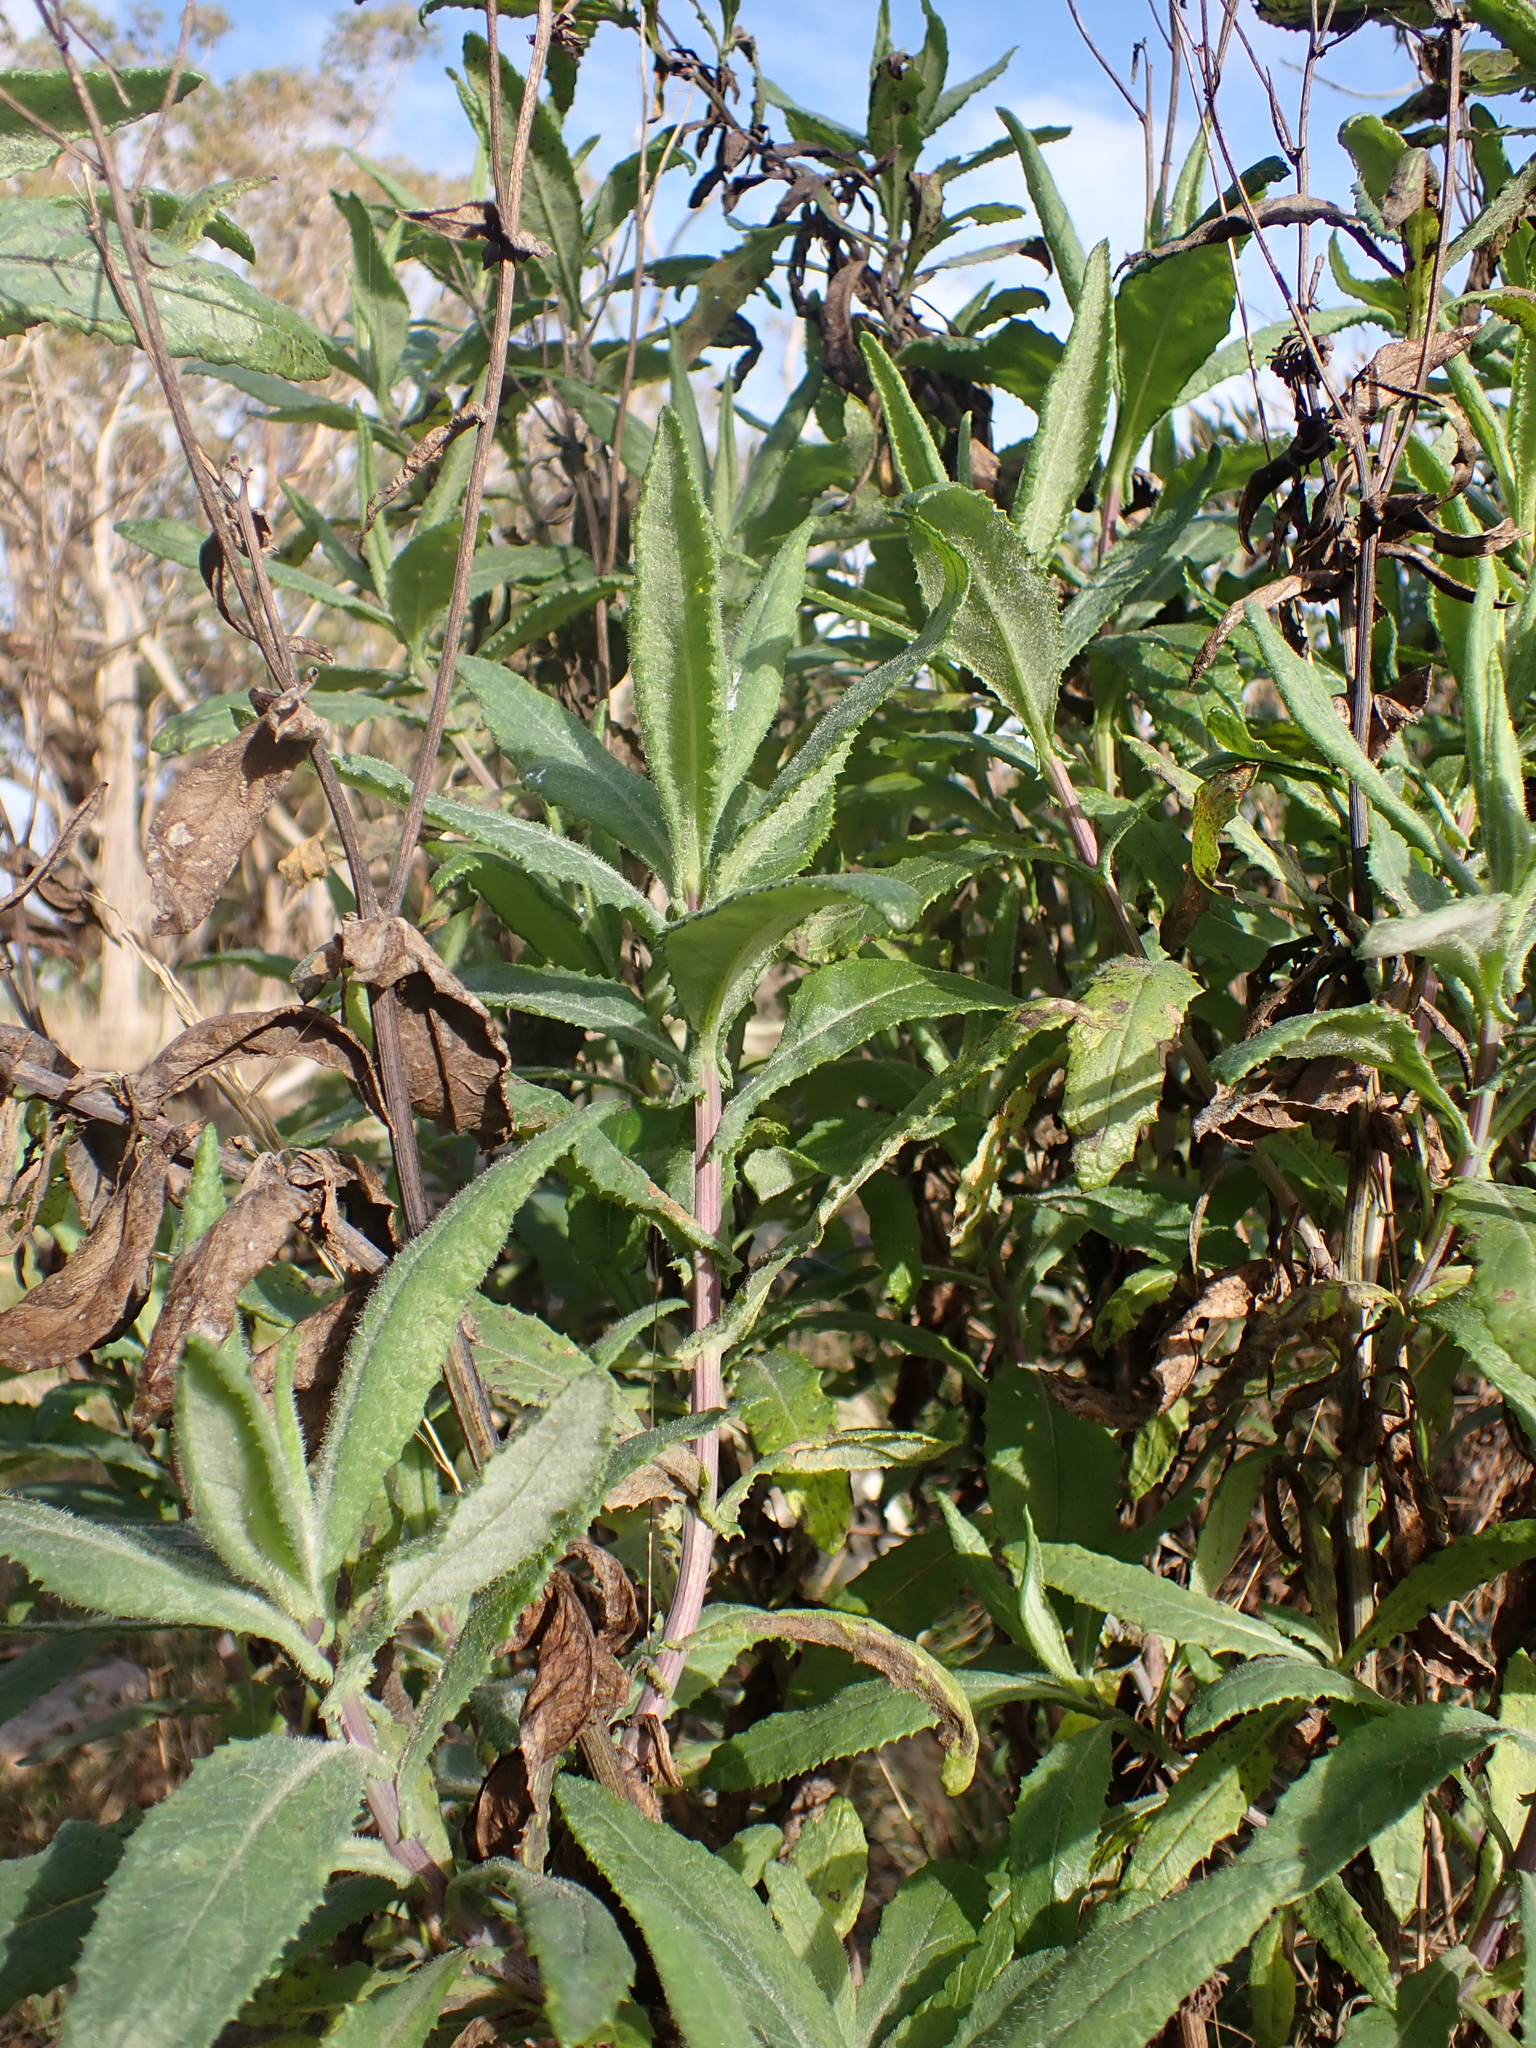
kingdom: Plantae
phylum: Tracheophyta
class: Magnoliopsida
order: Asterales
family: Asteraceae
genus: Senecio
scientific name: Senecio odoratus
